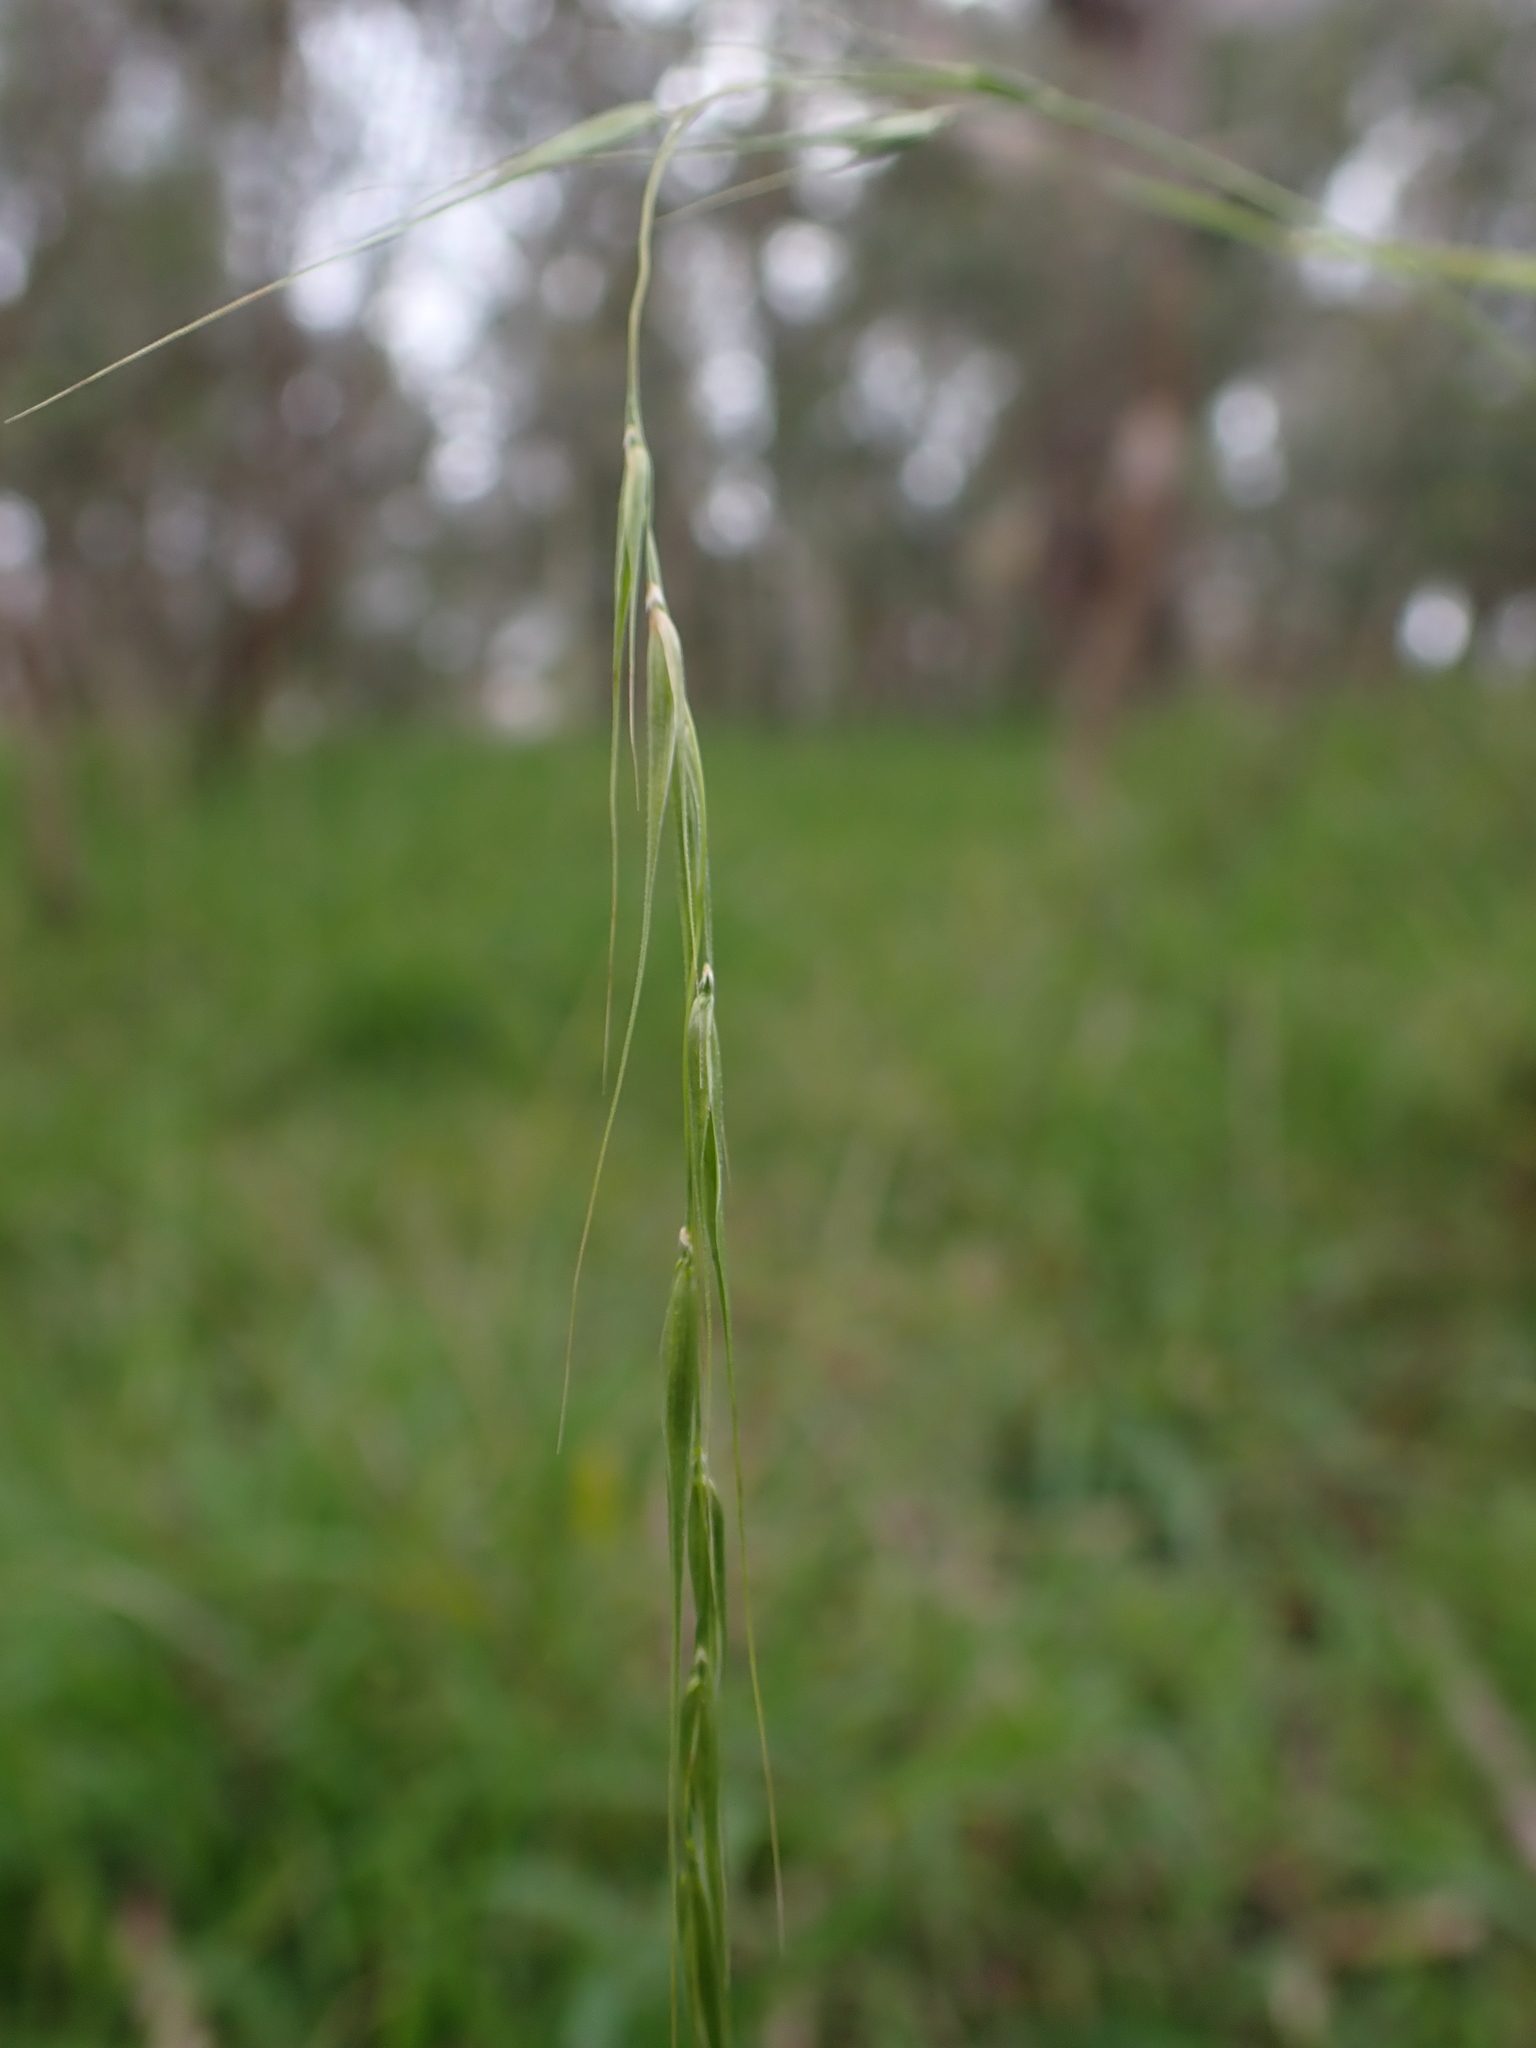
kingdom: Plantae
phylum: Tracheophyta
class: Liliopsida
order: Poales
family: Poaceae
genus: Microlaena
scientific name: Microlaena stipoides
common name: Meadow ricegrass
